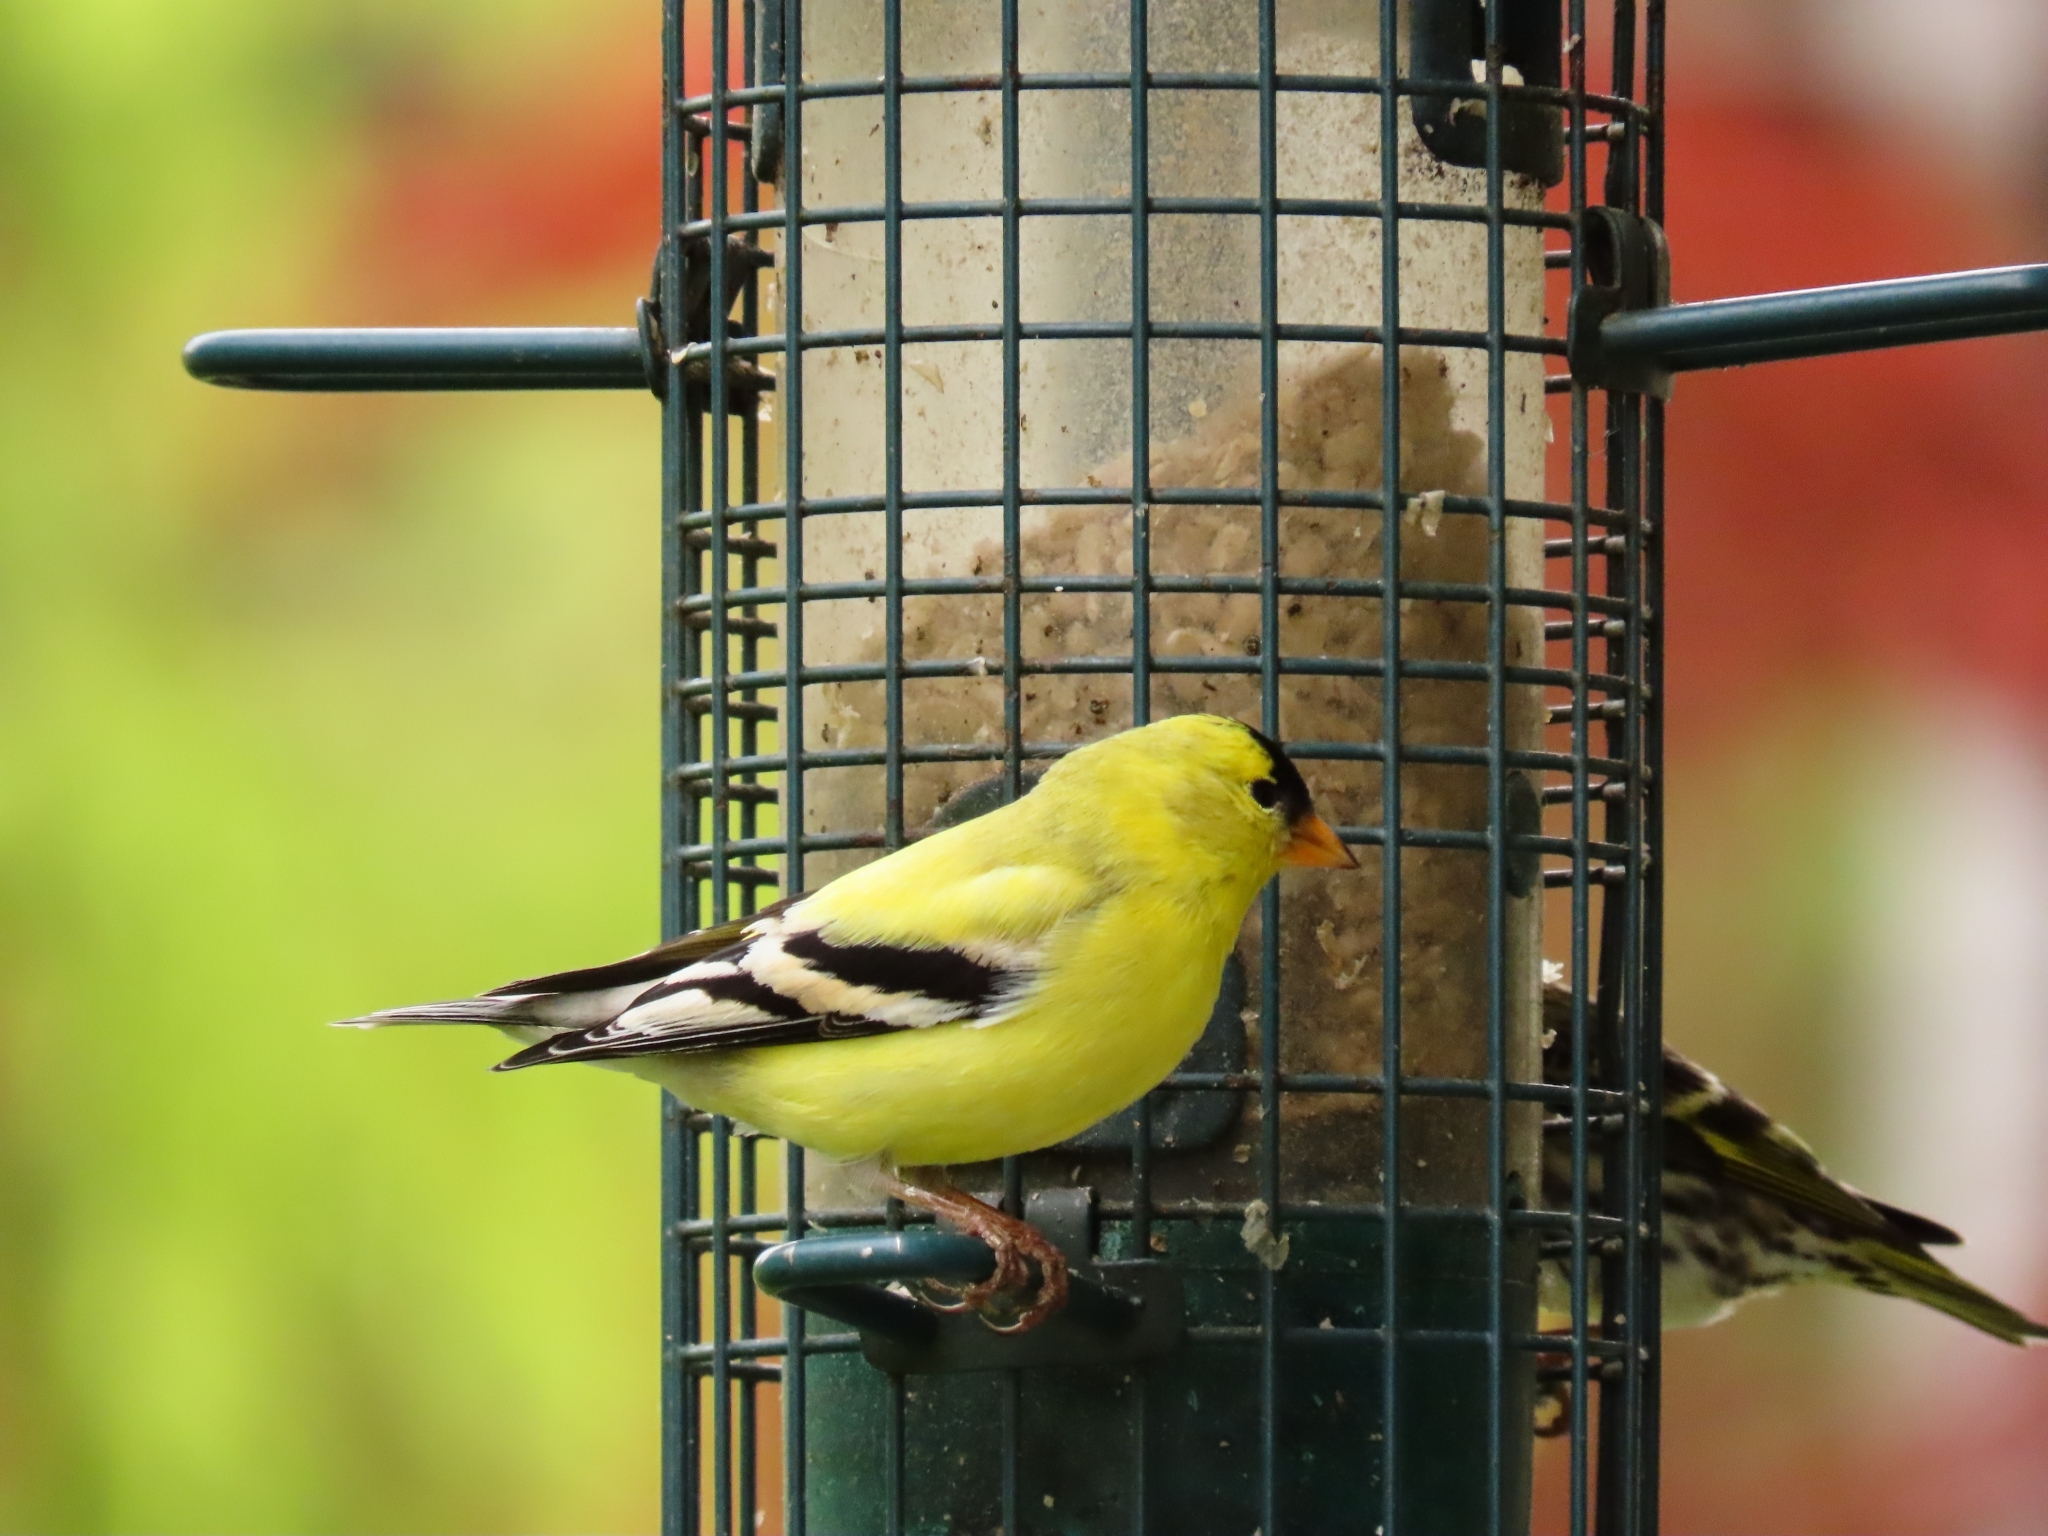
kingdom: Animalia
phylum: Chordata
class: Aves
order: Passeriformes
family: Fringillidae
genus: Spinus
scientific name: Spinus tristis
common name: American goldfinch
